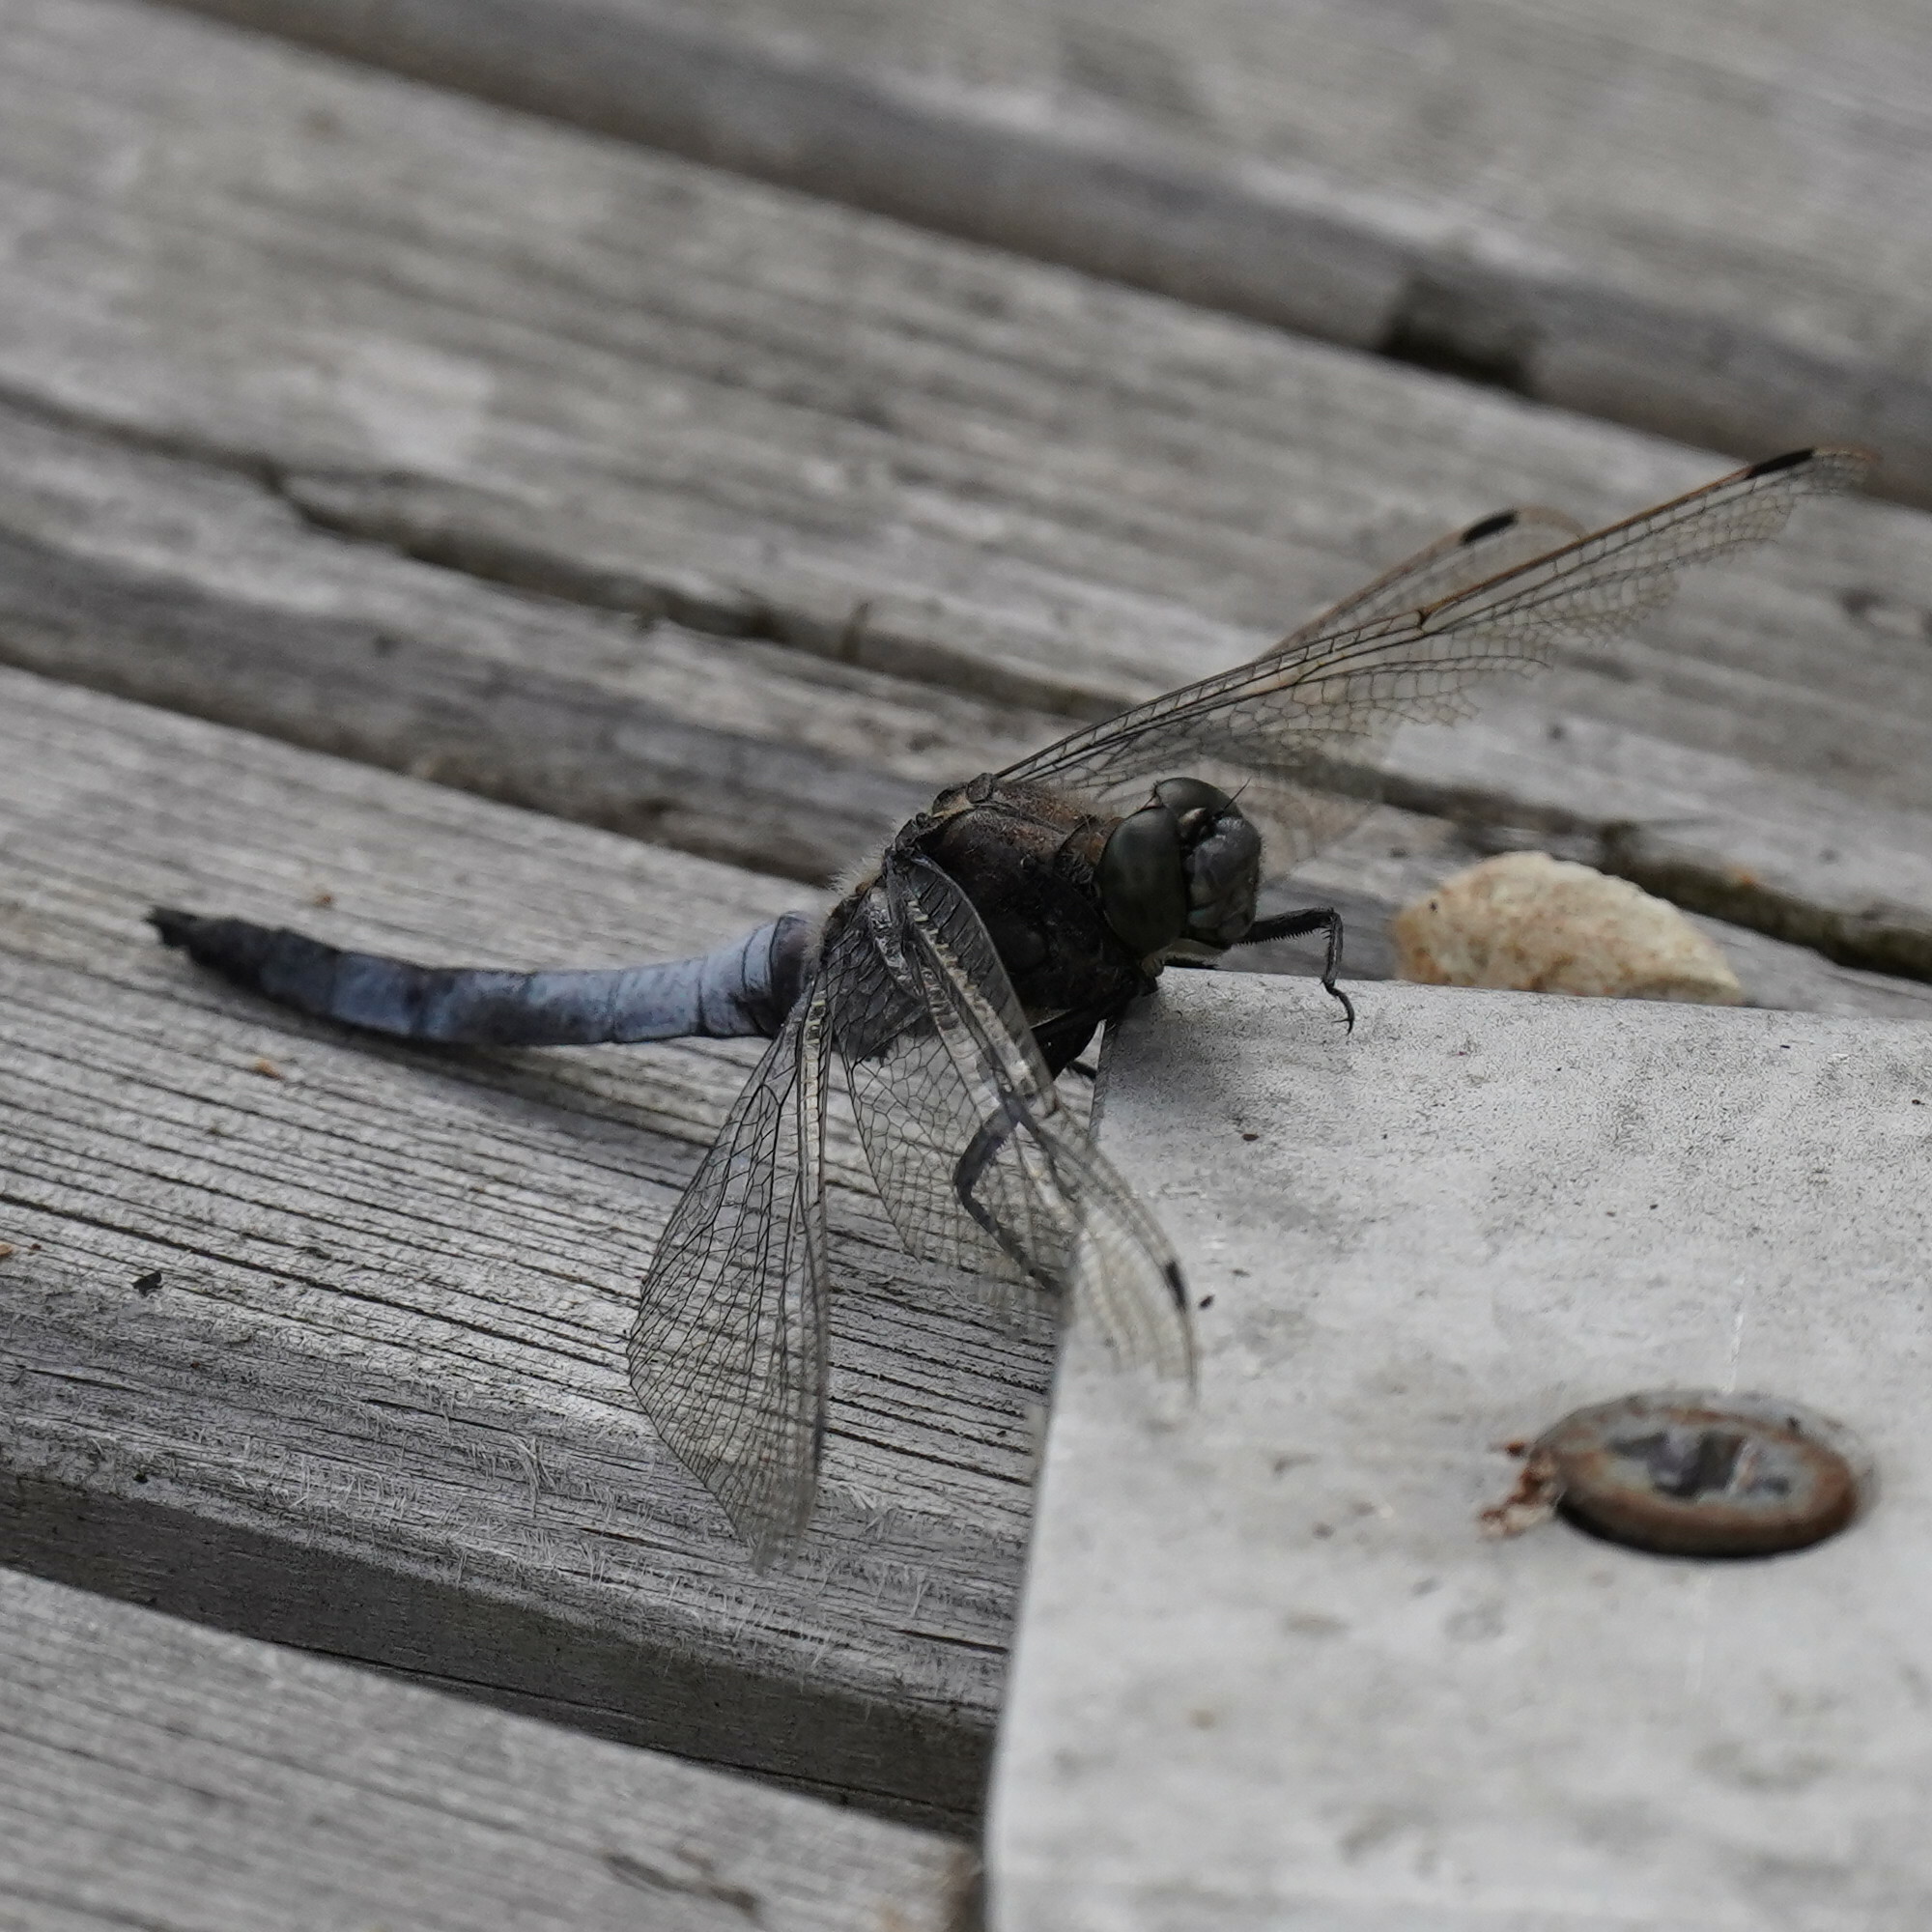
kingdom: Animalia
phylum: Arthropoda
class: Insecta
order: Odonata
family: Libellulidae
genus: Orthetrum
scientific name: Orthetrum cancellatum
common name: Black-tailed skimmer
